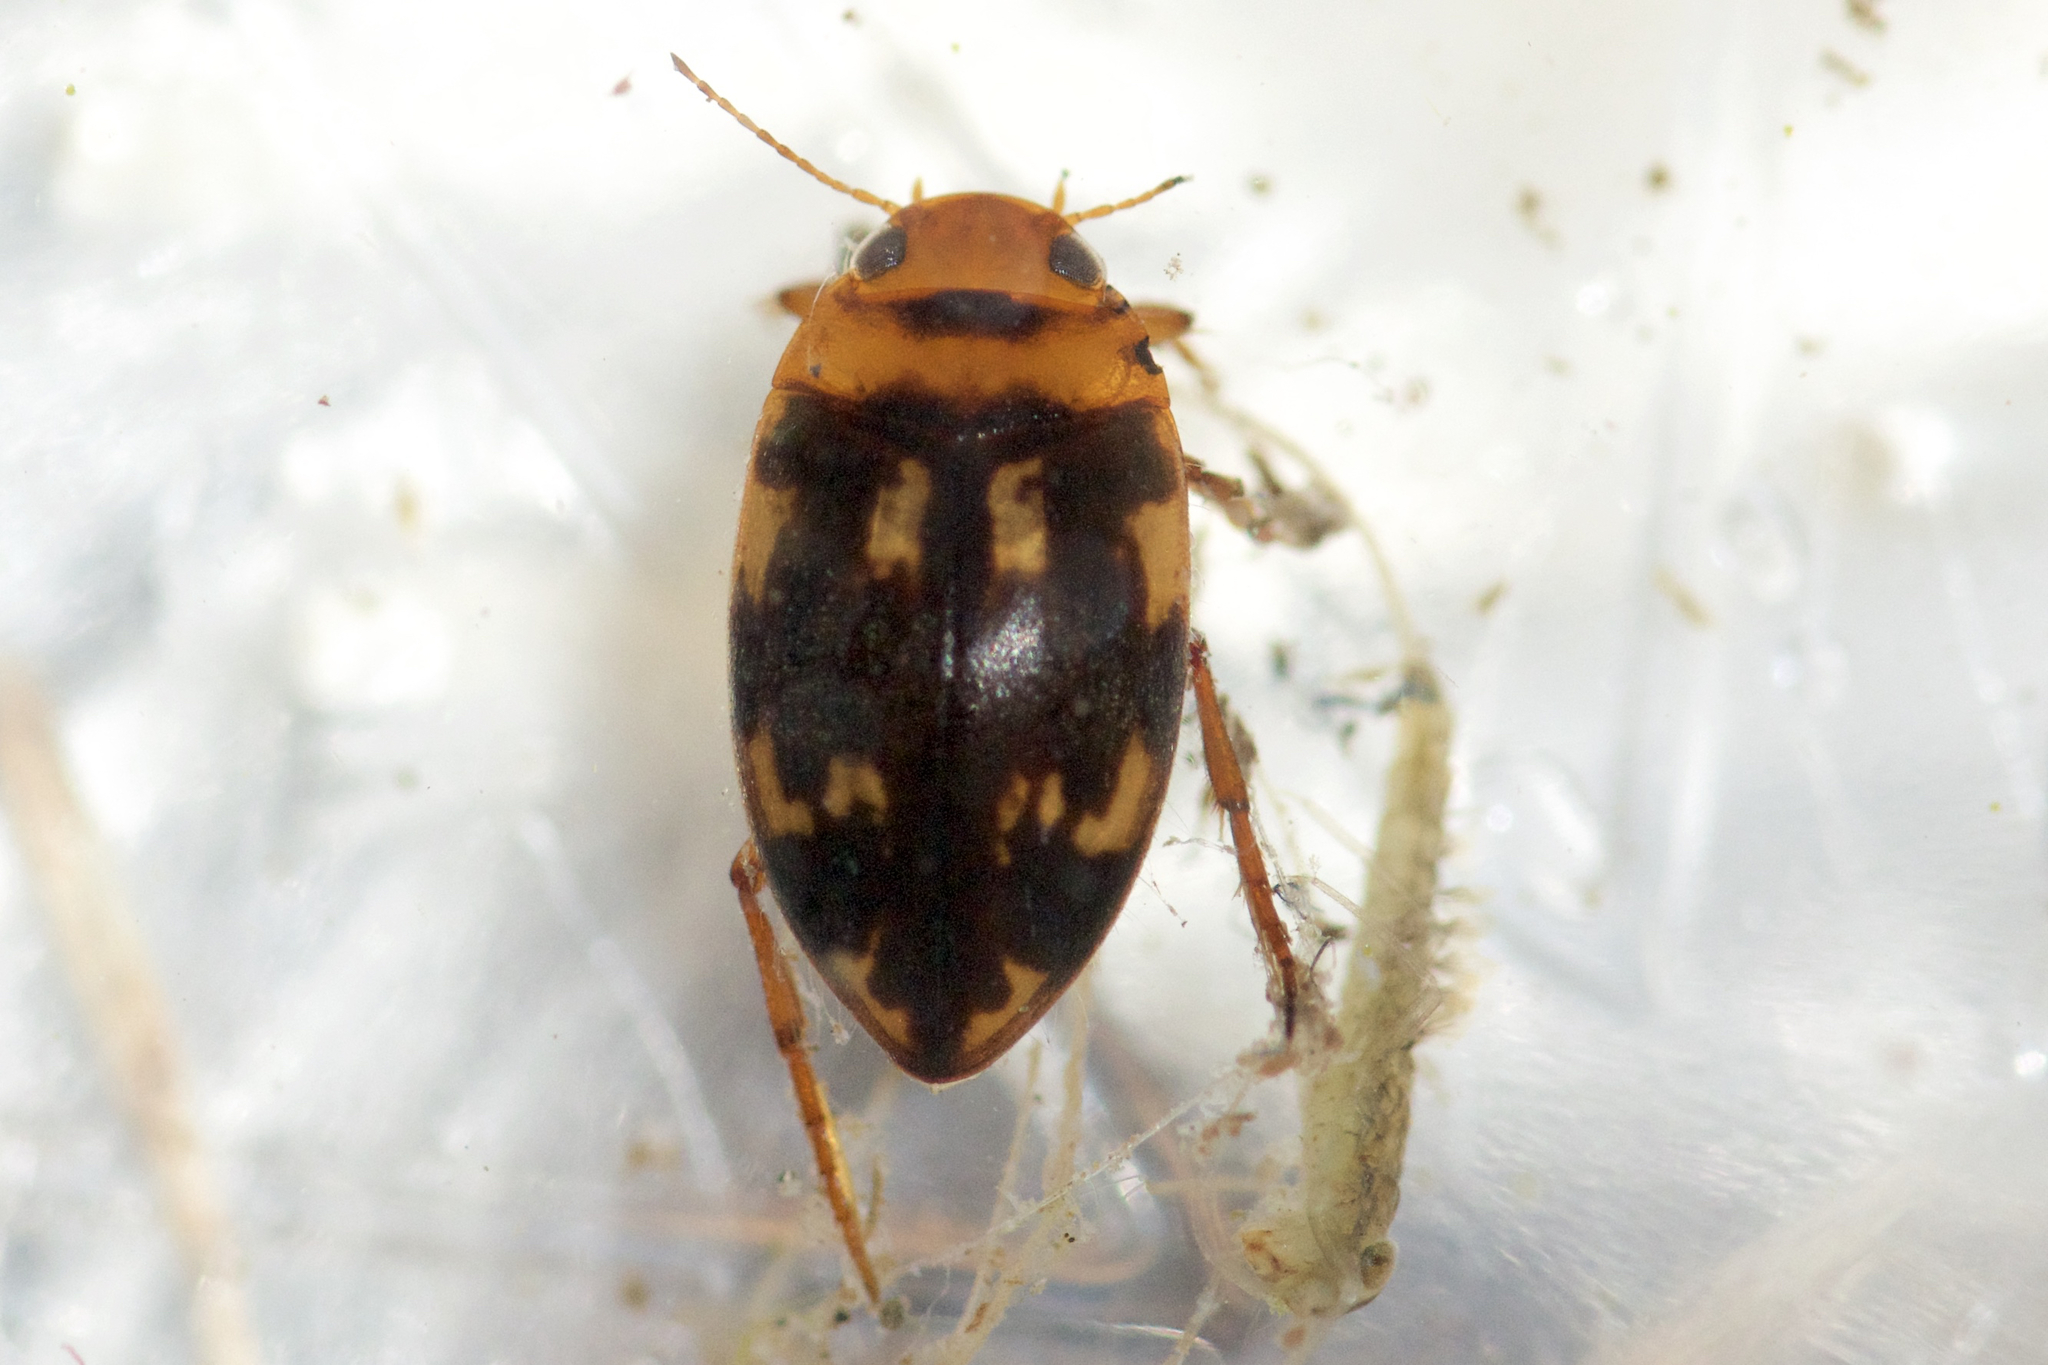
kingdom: Animalia
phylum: Arthropoda
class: Insecta
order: Coleoptera
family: Dytiscidae
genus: Neoporus
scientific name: Neoporus undulatus
